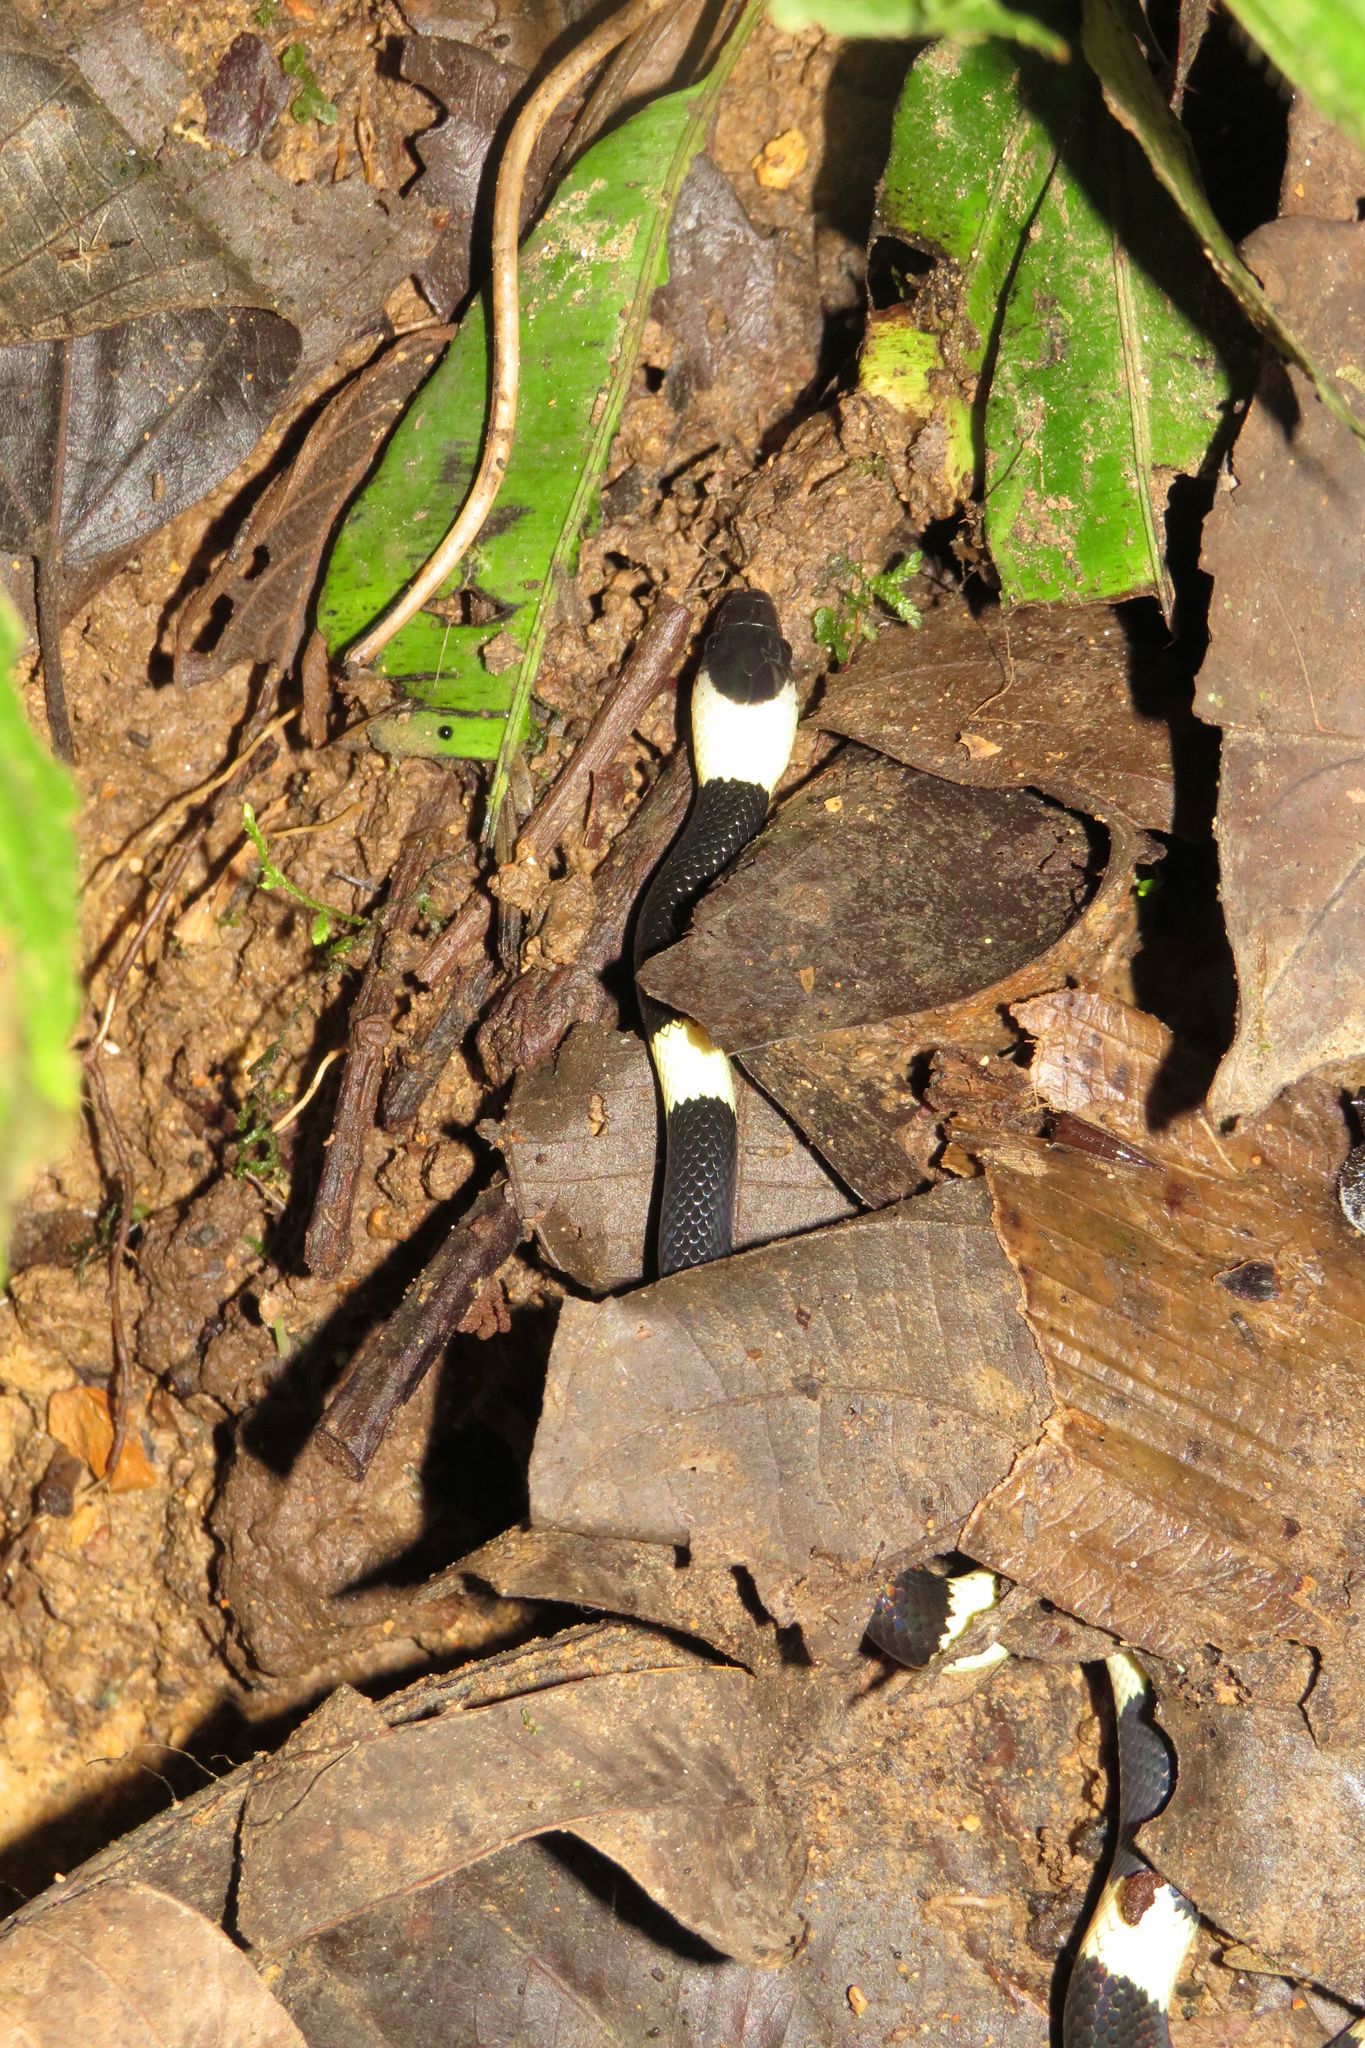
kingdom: Animalia
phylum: Chordata
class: Squamata
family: Colubridae
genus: Oxyrhopus
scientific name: Oxyrhopus petolarius
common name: Forest flame snake
